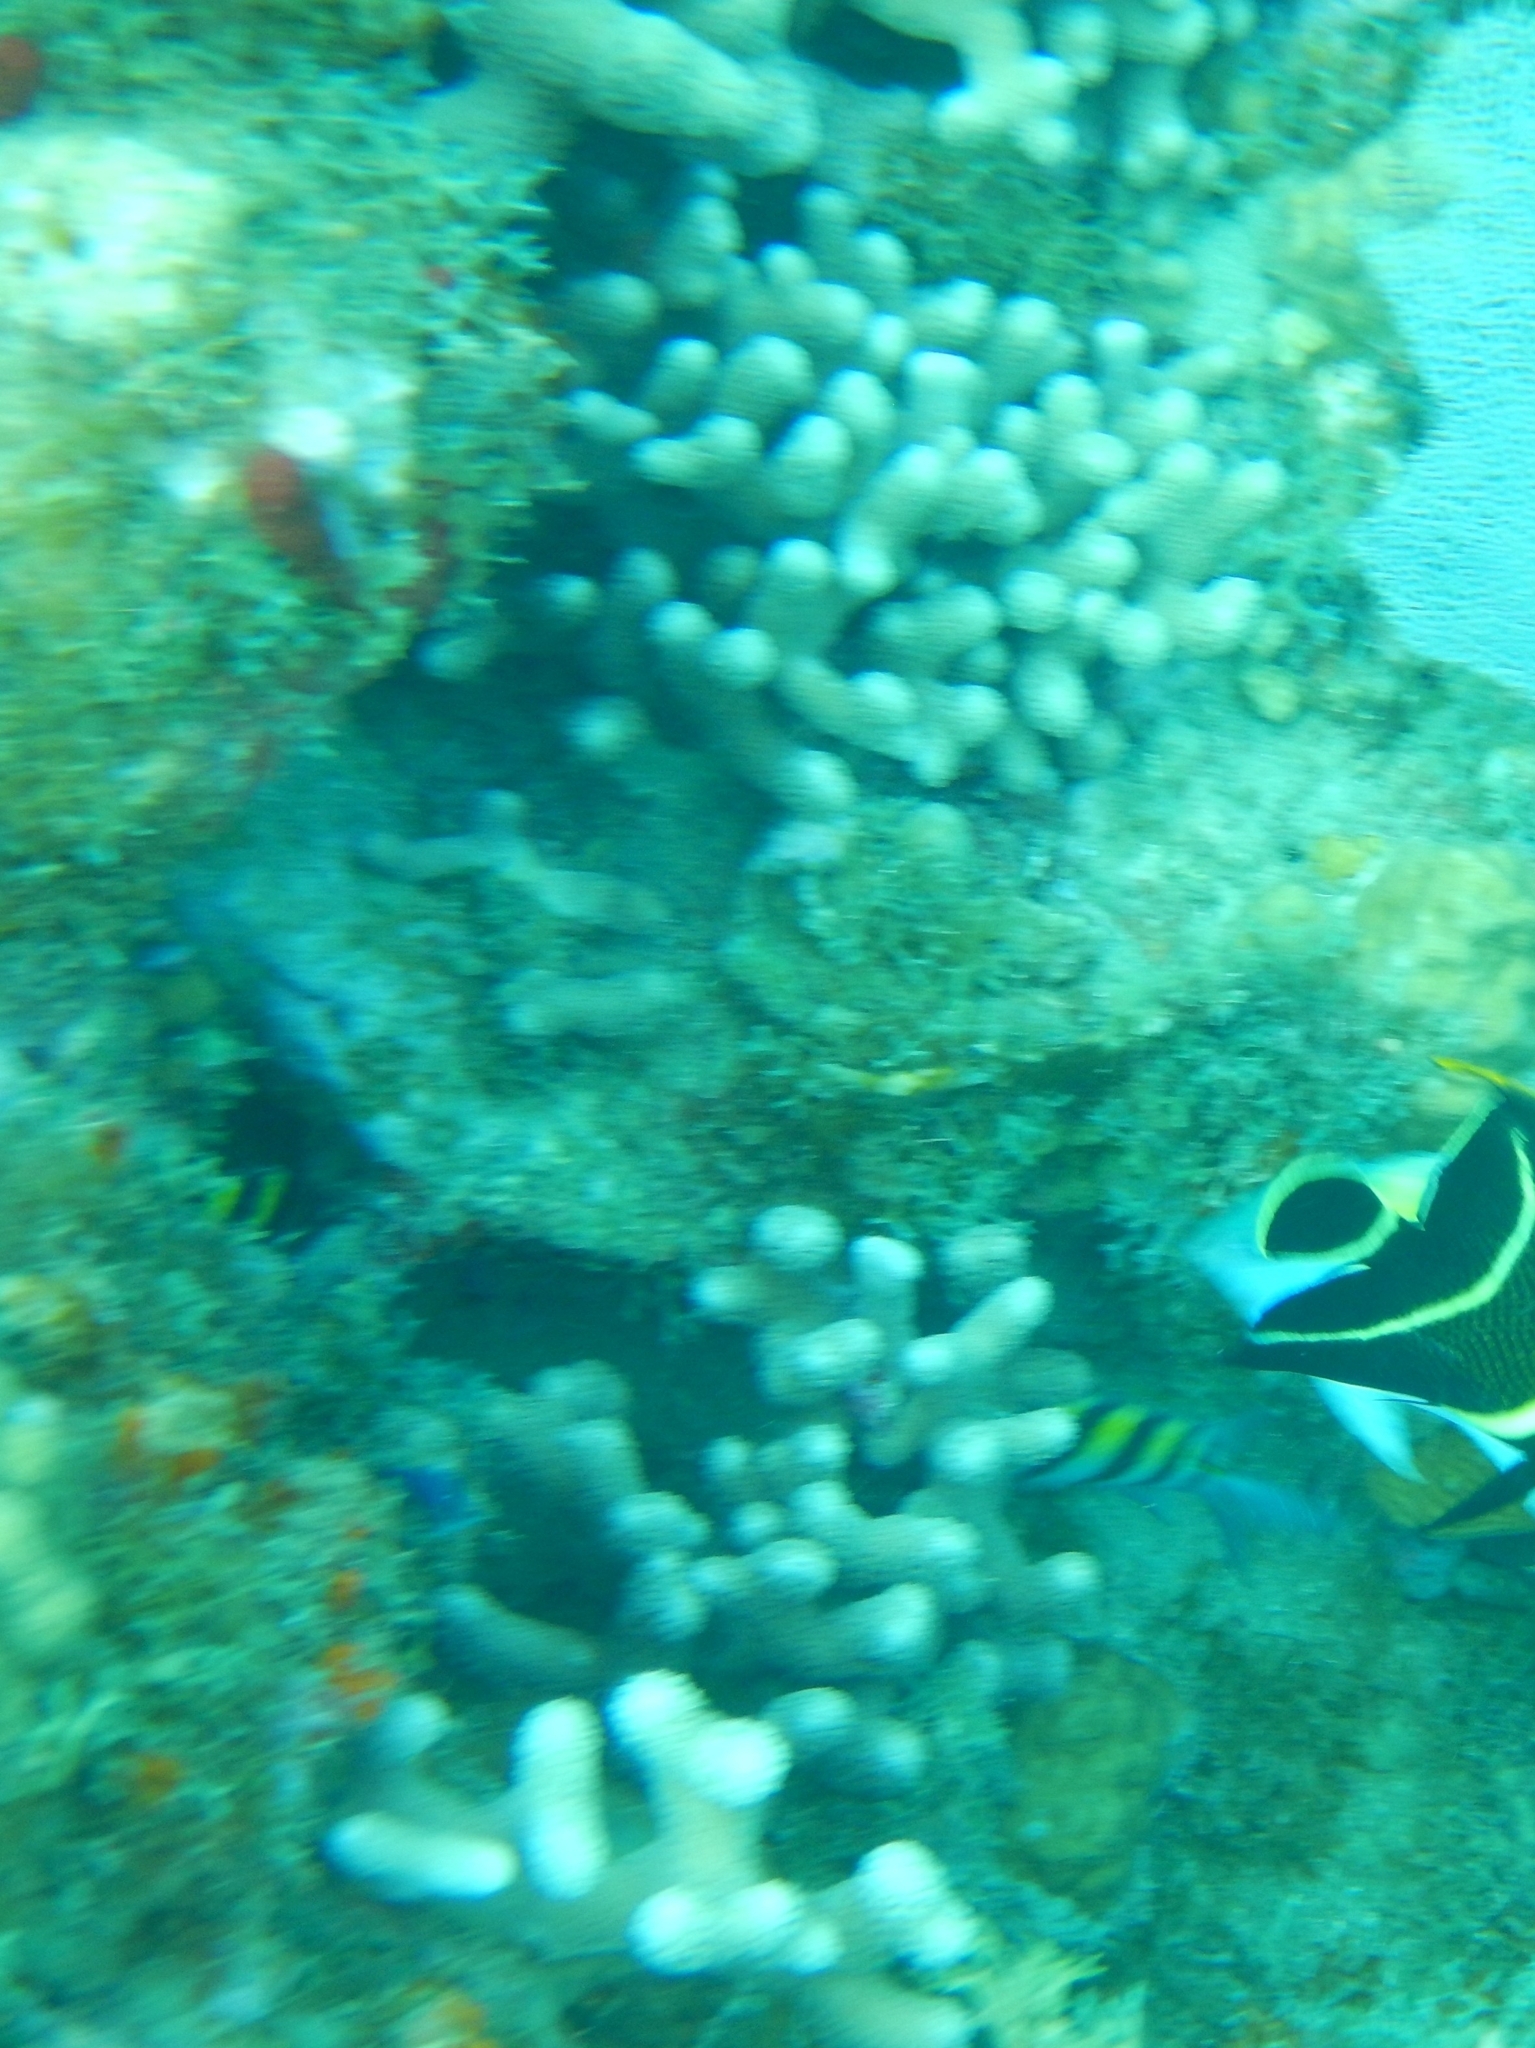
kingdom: Animalia
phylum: Cnidaria
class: Anthozoa
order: Scleractinia
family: Poritidae
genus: Porites
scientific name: Porites porites
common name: Finger coral
